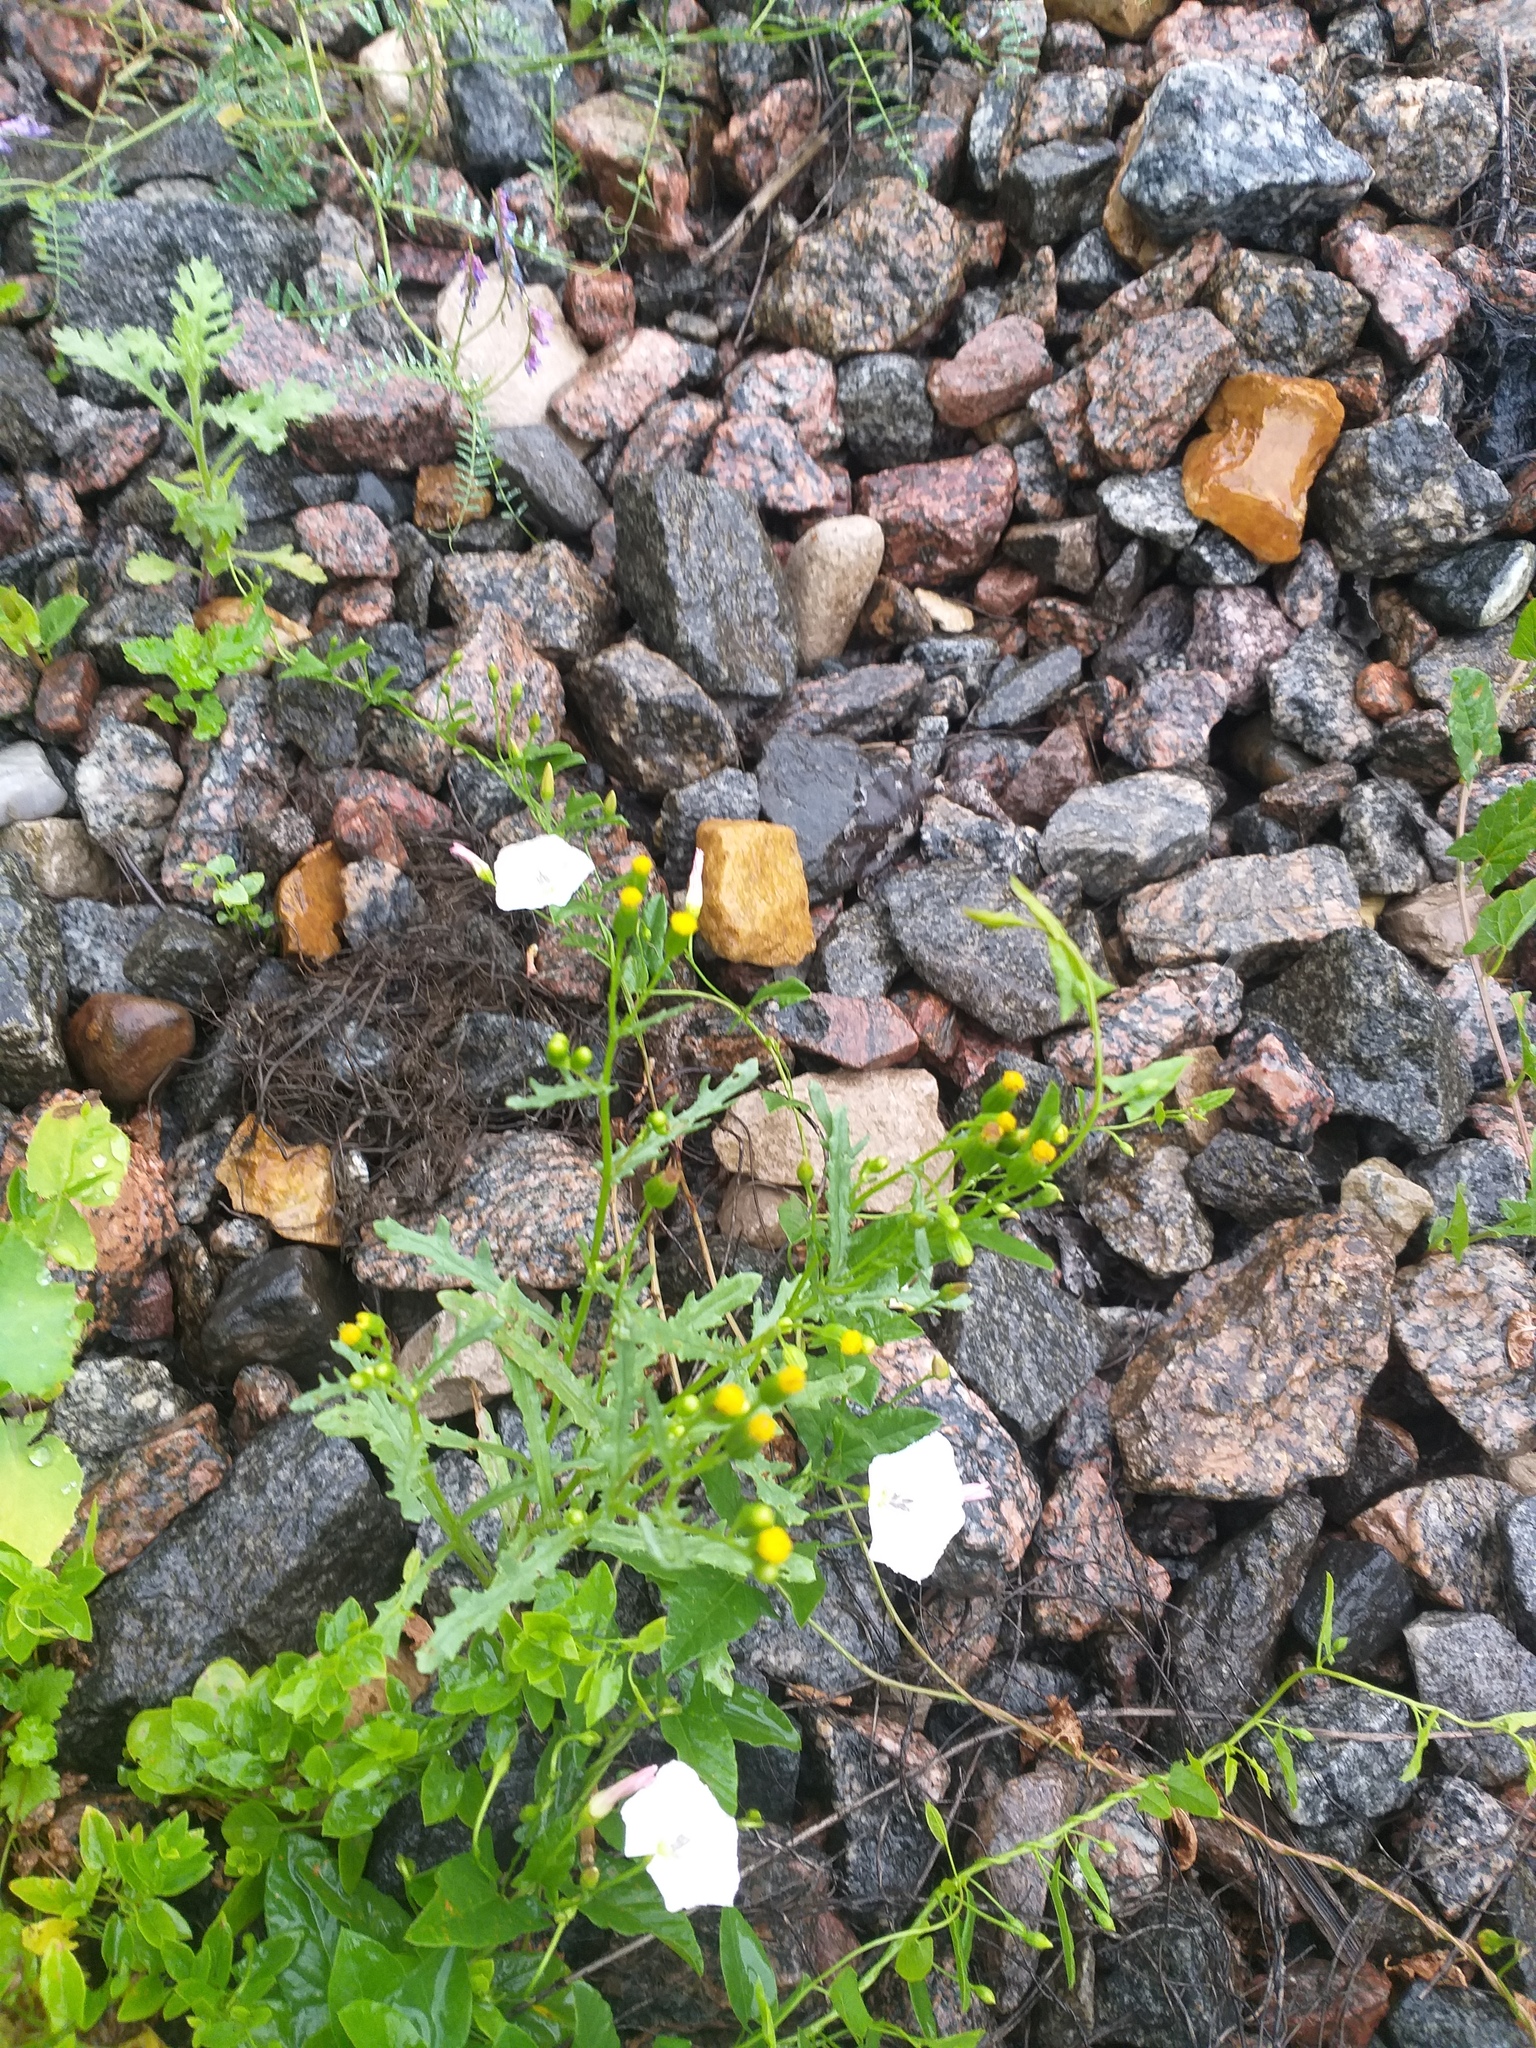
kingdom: Plantae
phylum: Tracheophyta
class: Magnoliopsida
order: Asterales
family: Asteraceae
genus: Senecio
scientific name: Senecio dubitabilis
